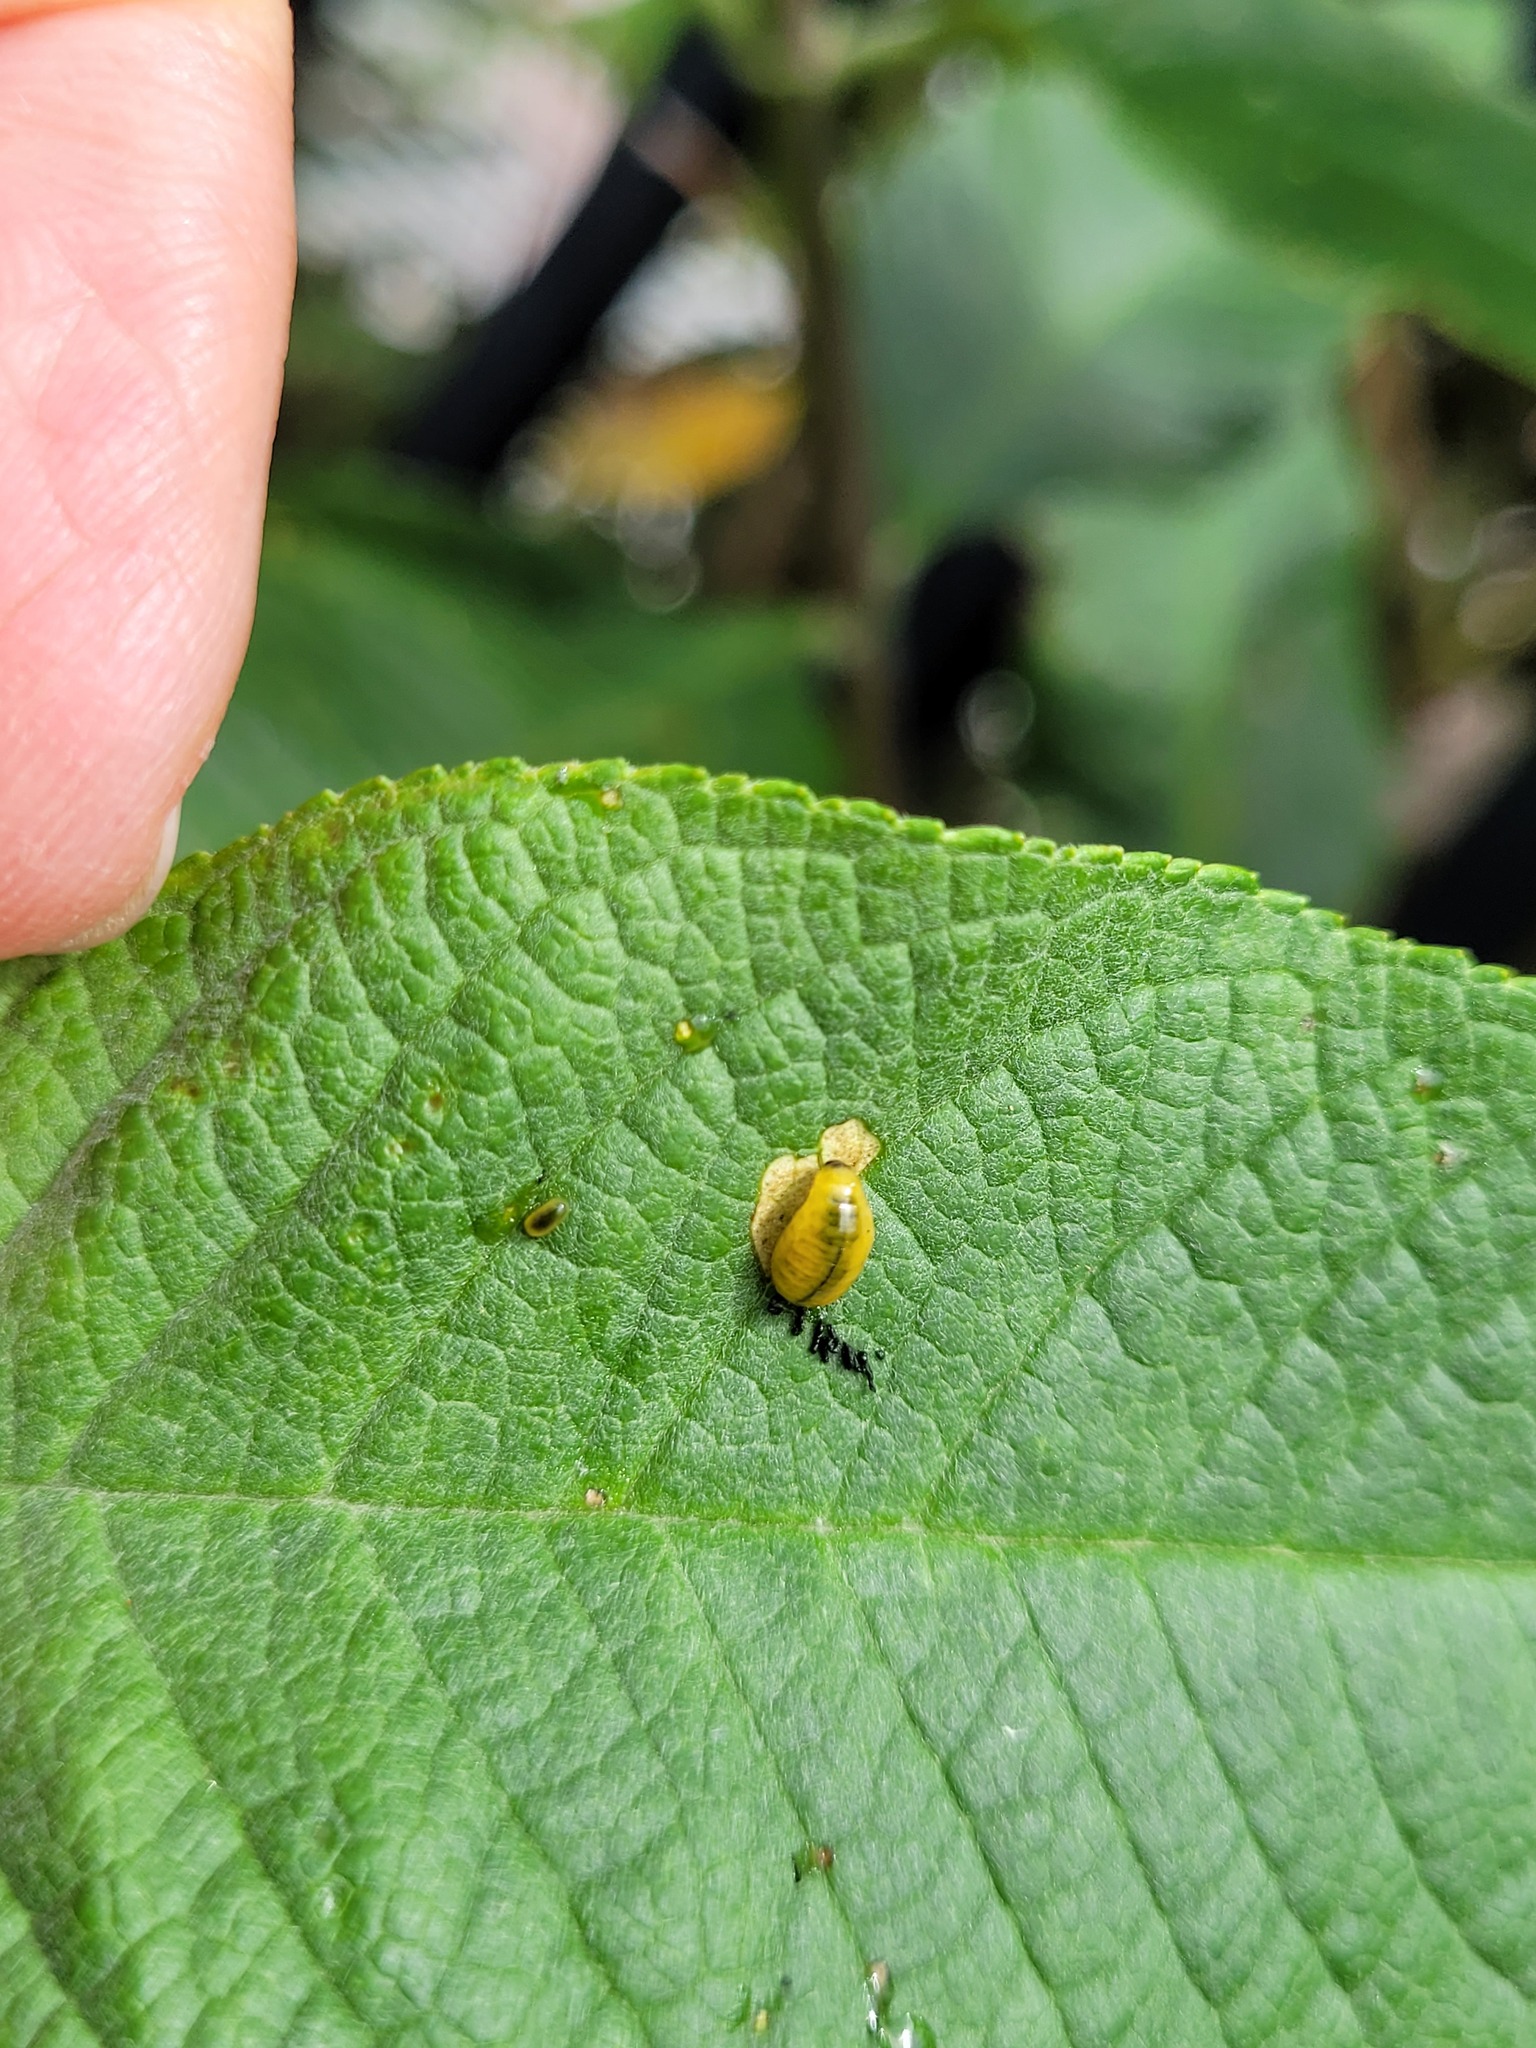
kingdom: Animalia
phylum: Arthropoda
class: Insecta
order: Coleoptera
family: Curculionidae
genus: Cleopus
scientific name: Cleopus japonicus
